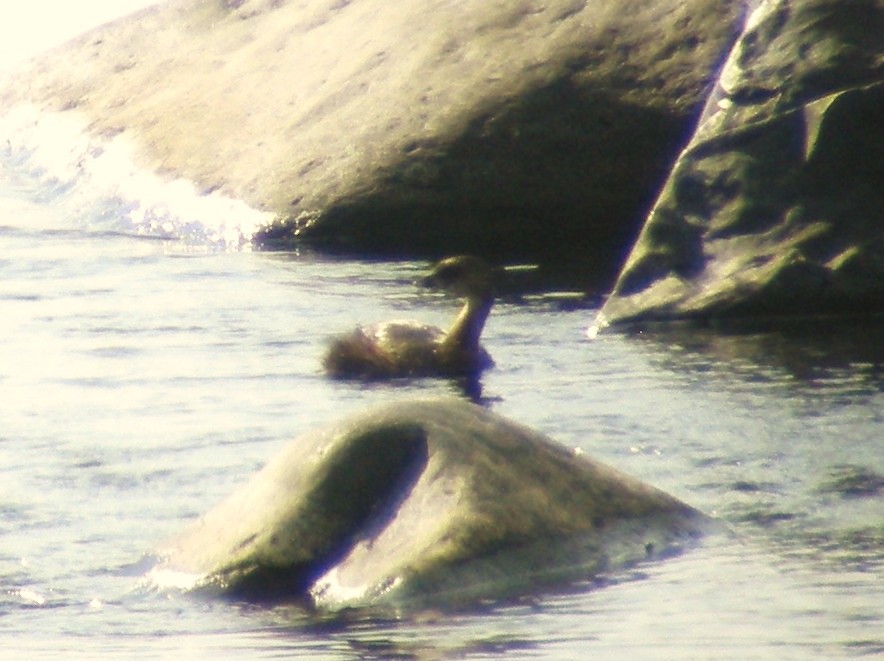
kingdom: Animalia
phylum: Chordata
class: Aves
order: Podicipediformes
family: Podicipedidae
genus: Podilymbus
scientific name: Podilymbus podiceps
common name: Pied-billed grebe
